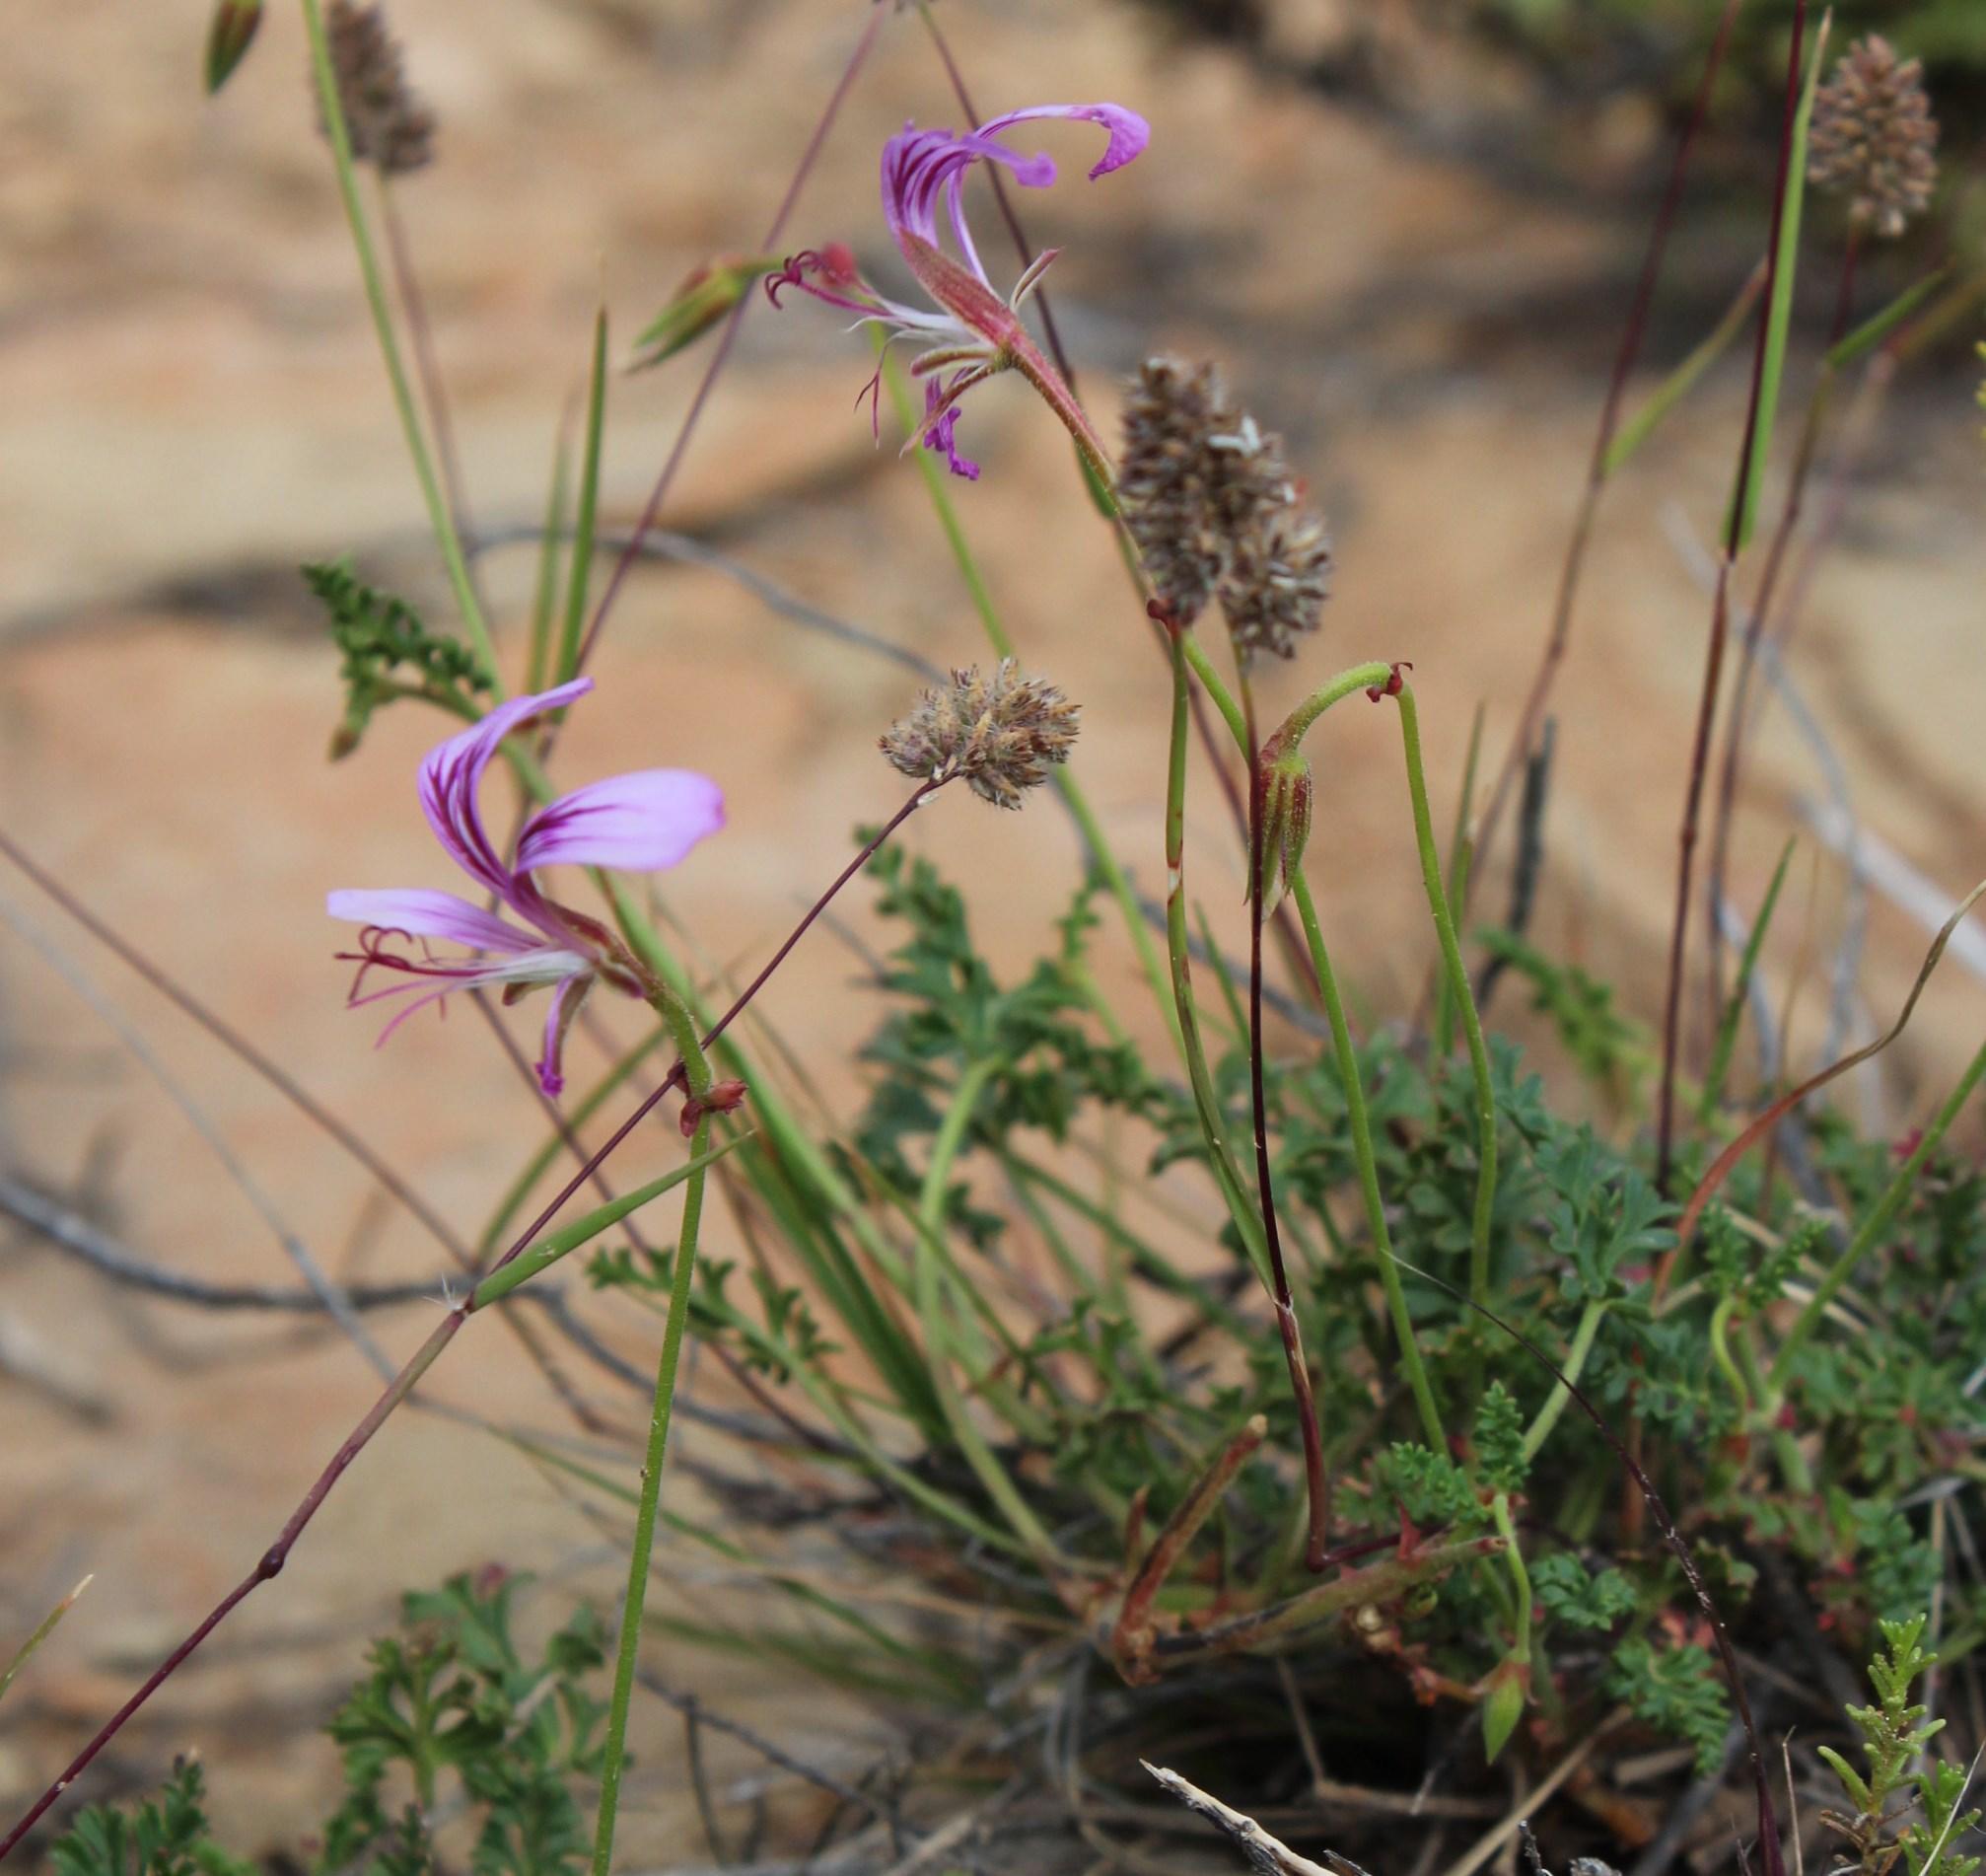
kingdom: Plantae
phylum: Tracheophyta
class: Magnoliopsida
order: Geraniales
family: Geraniaceae
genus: Pelargonium
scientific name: Pelargonium caucalifolium
